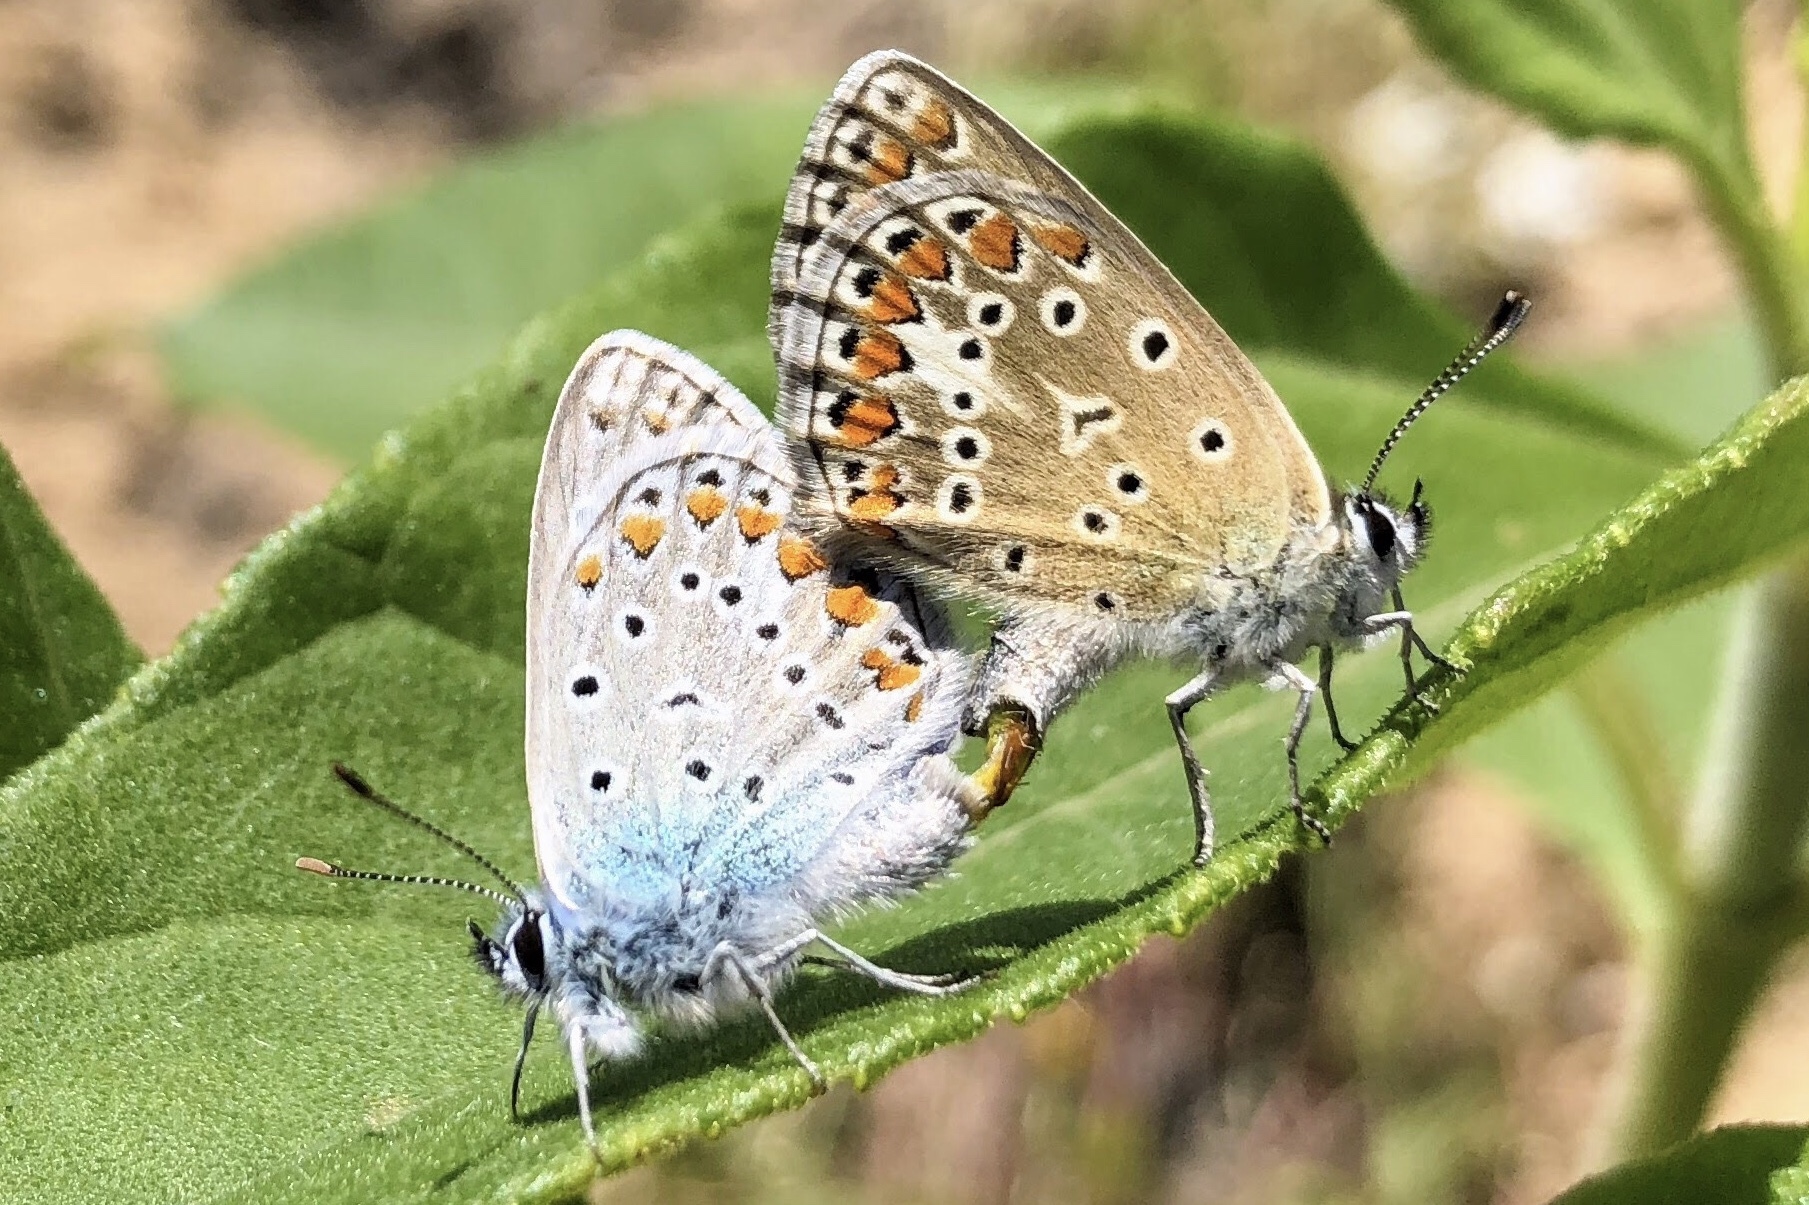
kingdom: Animalia
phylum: Arthropoda
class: Insecta
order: Lepidoptera
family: Lycaenidae
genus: Polyommatus
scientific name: Polyommatus icarus
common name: Common blue
